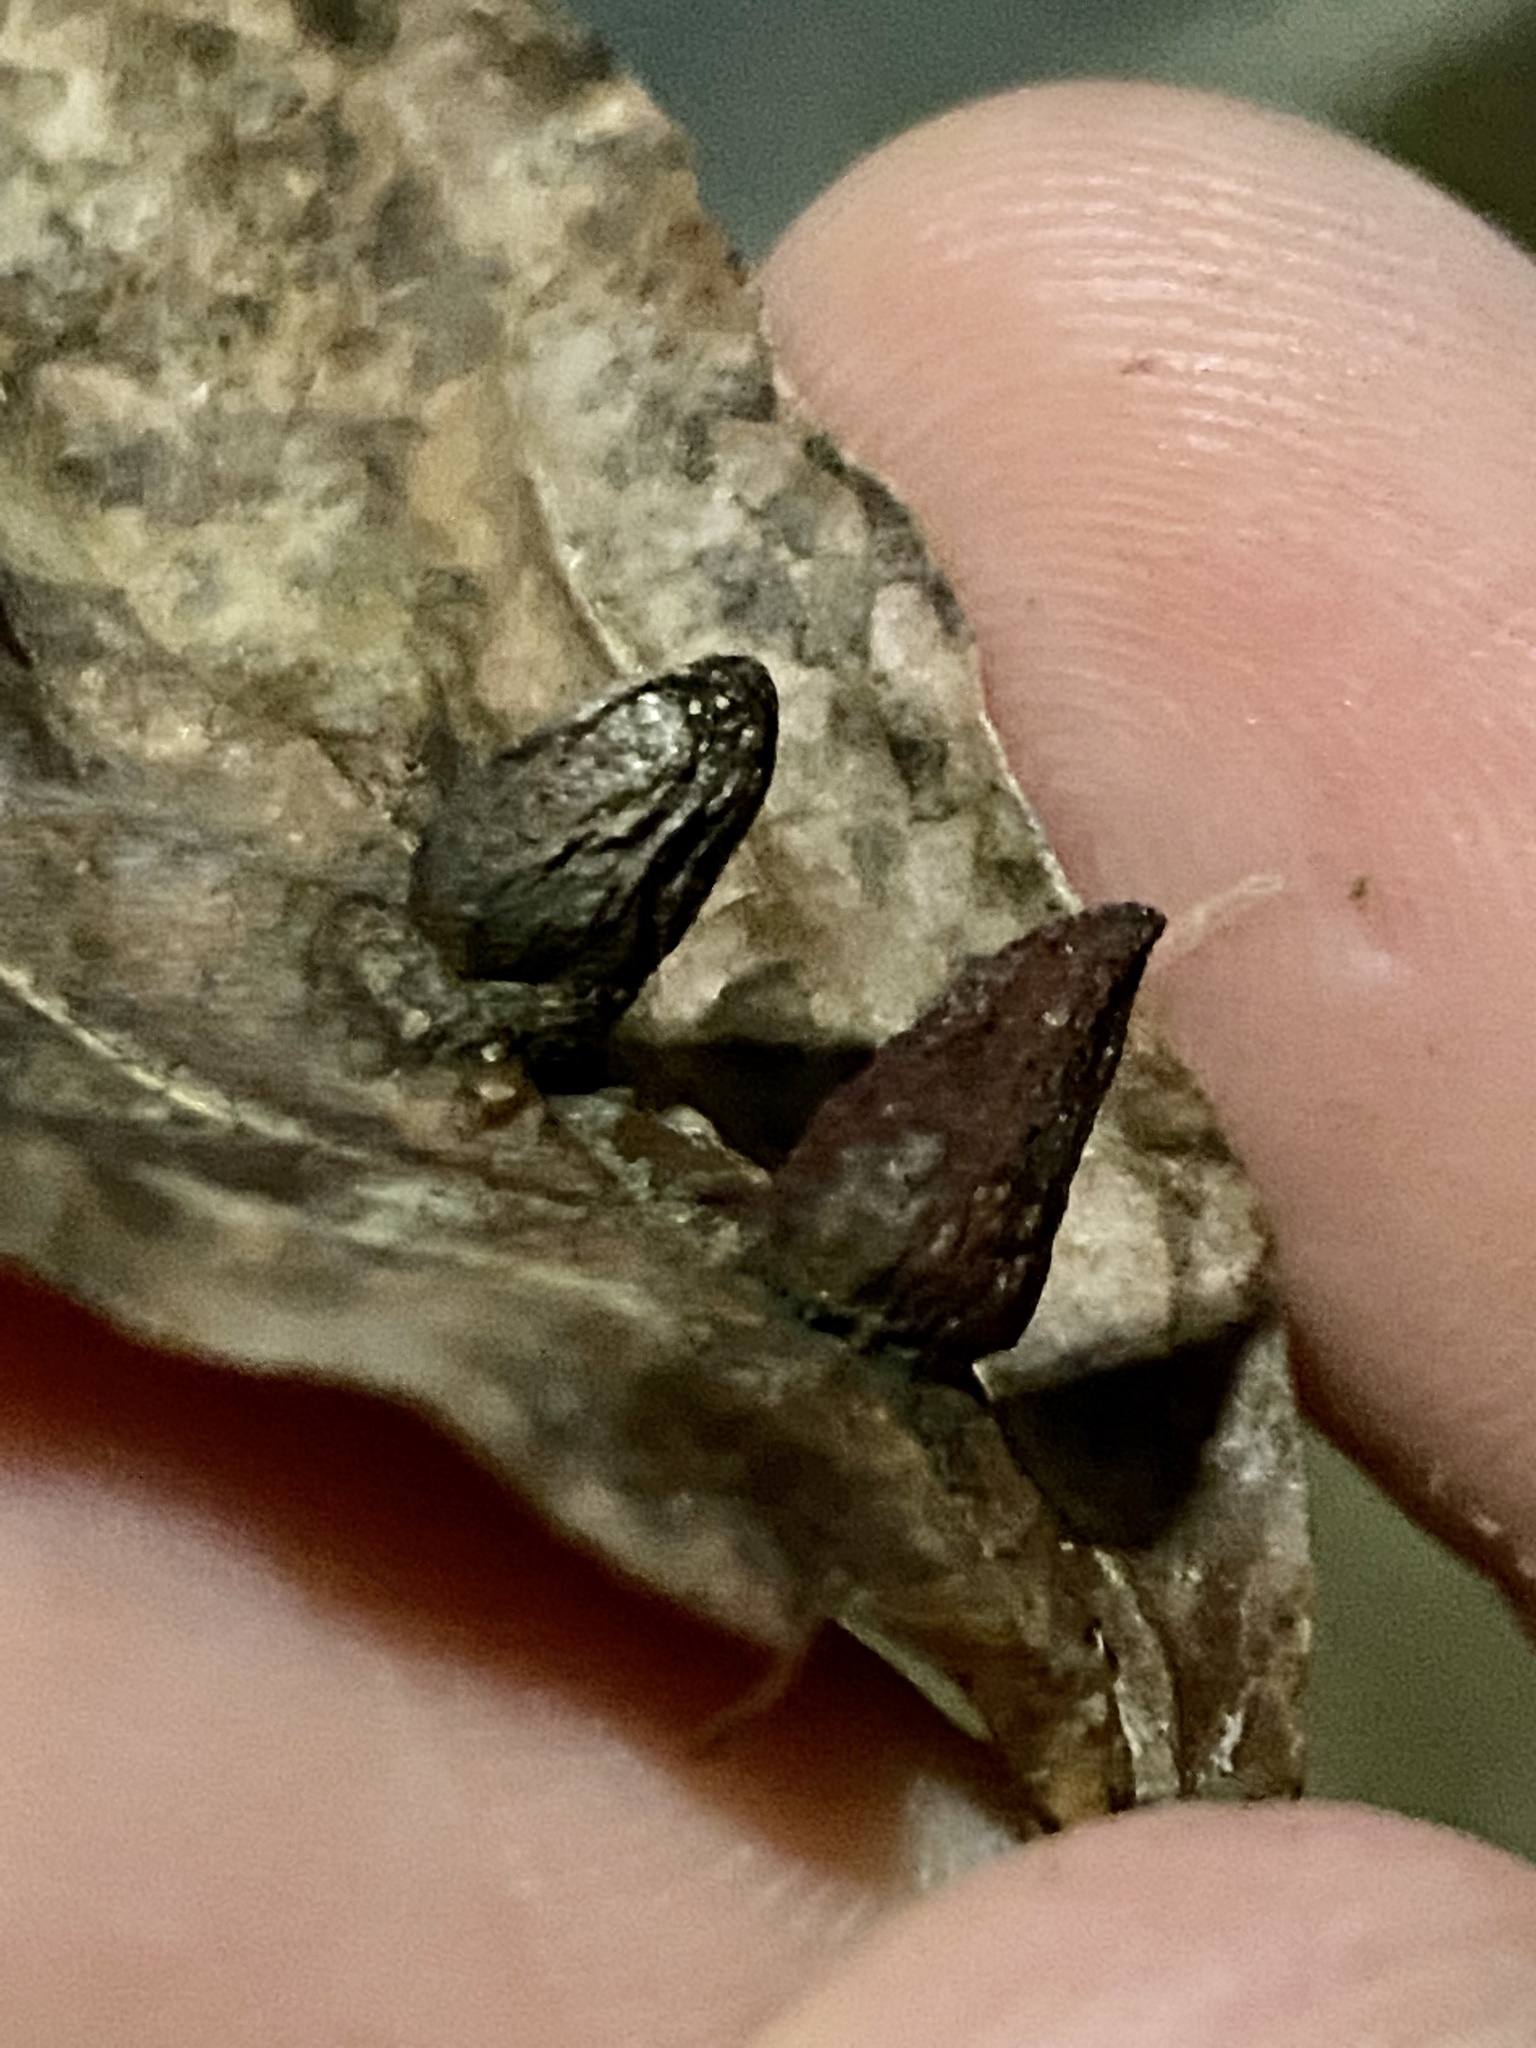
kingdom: Animalia
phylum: Arthropoda
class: Insecta
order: Hemiptera
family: Aphididae
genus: Hormaphis
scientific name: Hormaphis hamamelidis
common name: Witch-hazel cone gall aphid
